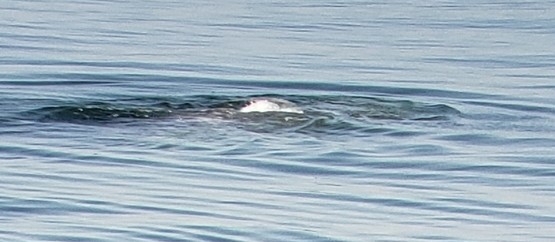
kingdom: Animalia
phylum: Chordata
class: Mammalia
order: Cetacea
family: Eschrichtiidae
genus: Eschrichtius
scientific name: Eschrichtius robustus
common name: Gray whale
